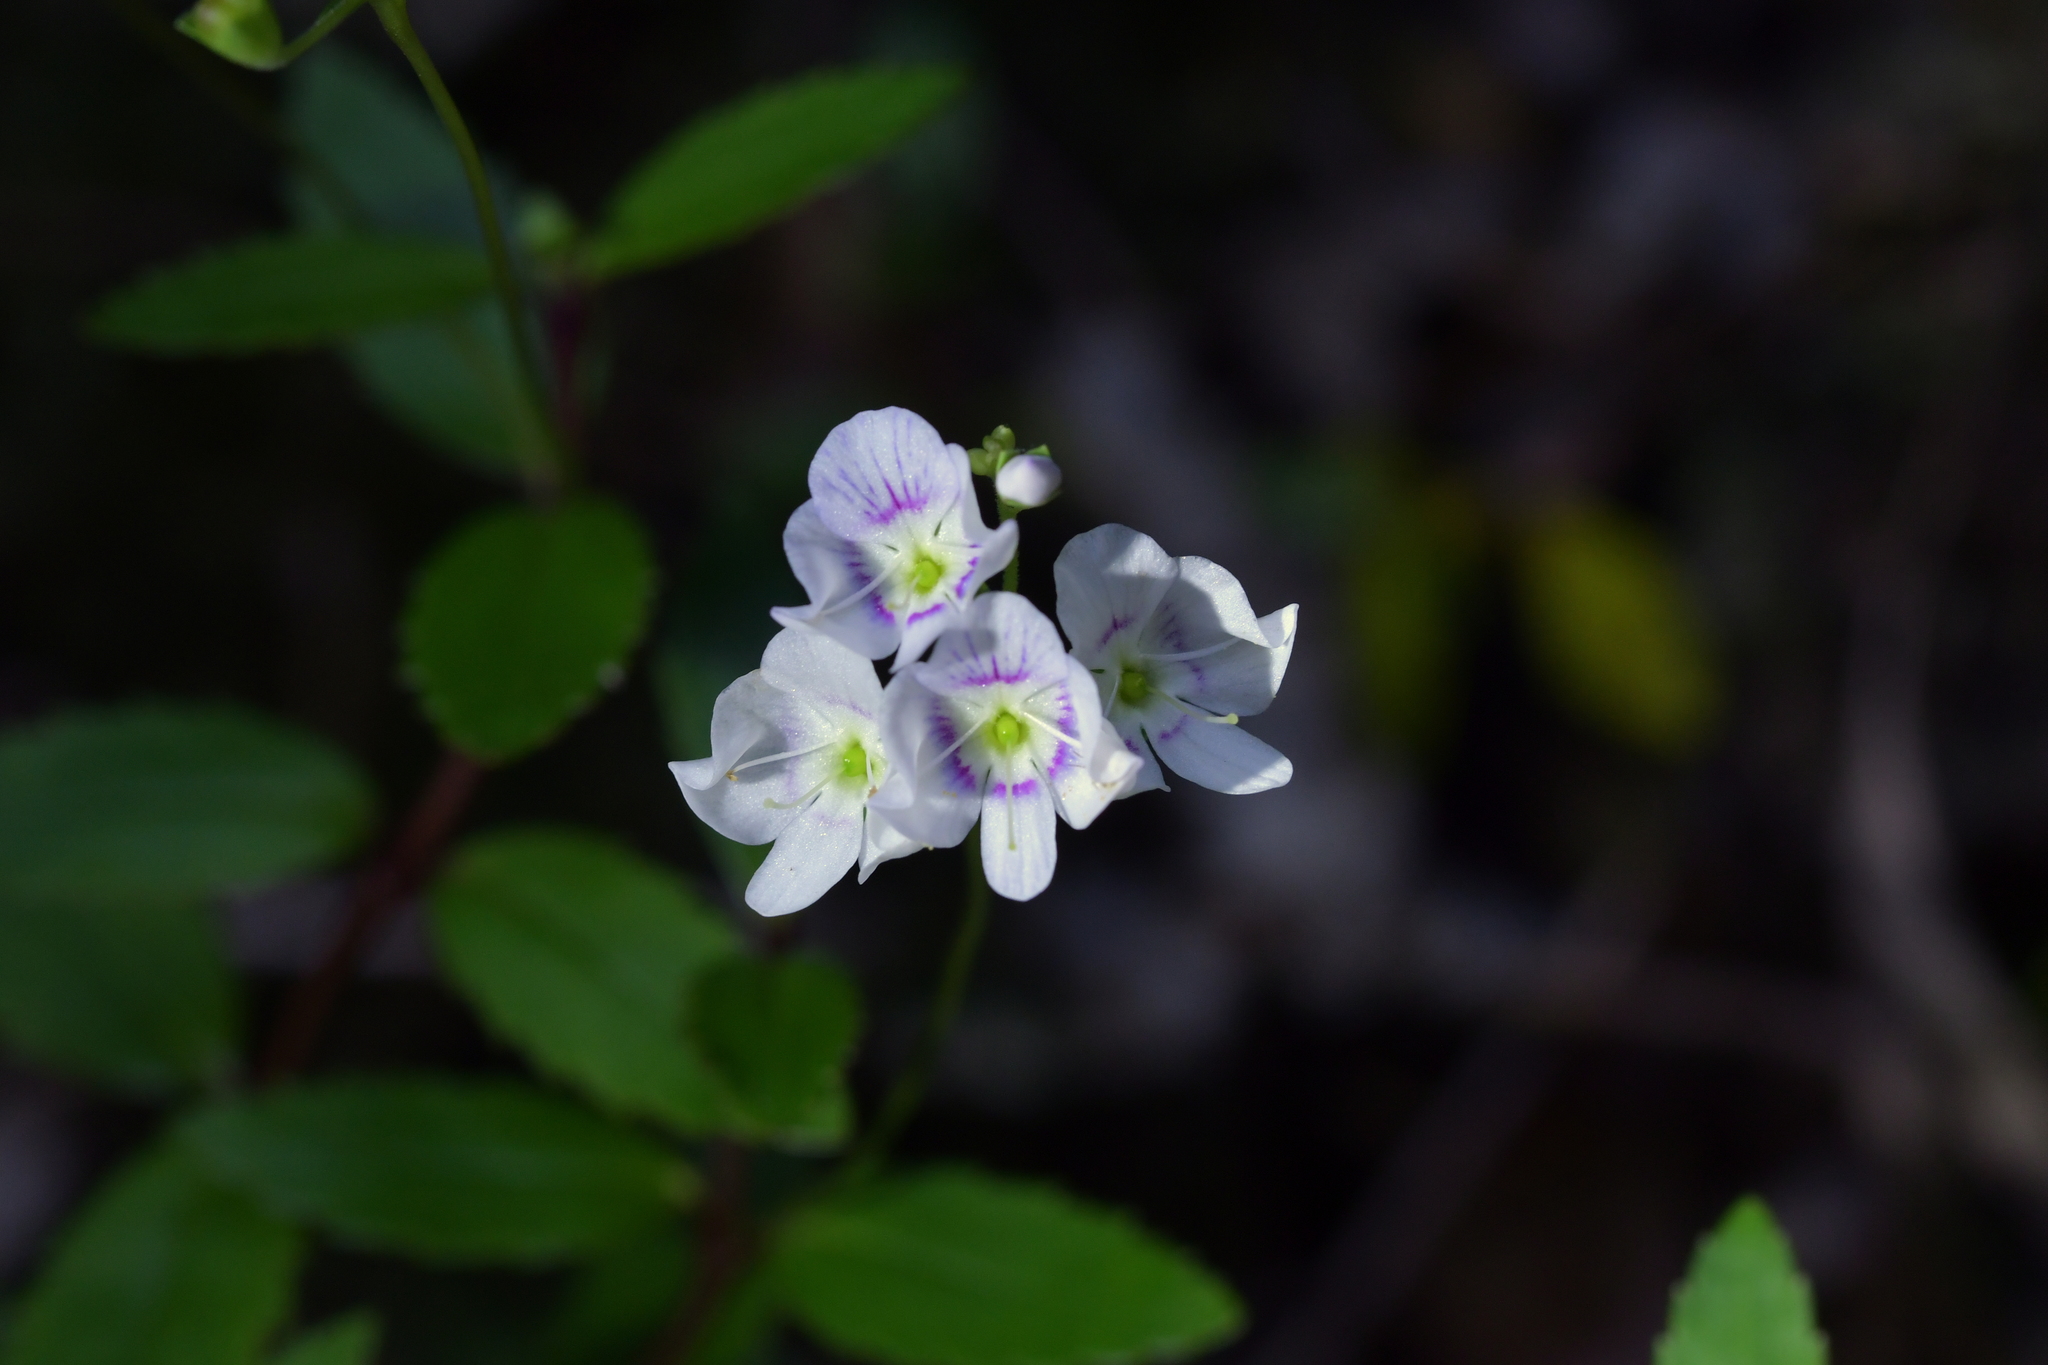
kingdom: Plantae
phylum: Tracheophyta
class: Magnoliopsida
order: Lamiales
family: Plantaginaceae
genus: Veronica
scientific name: Veronica lanceolata
